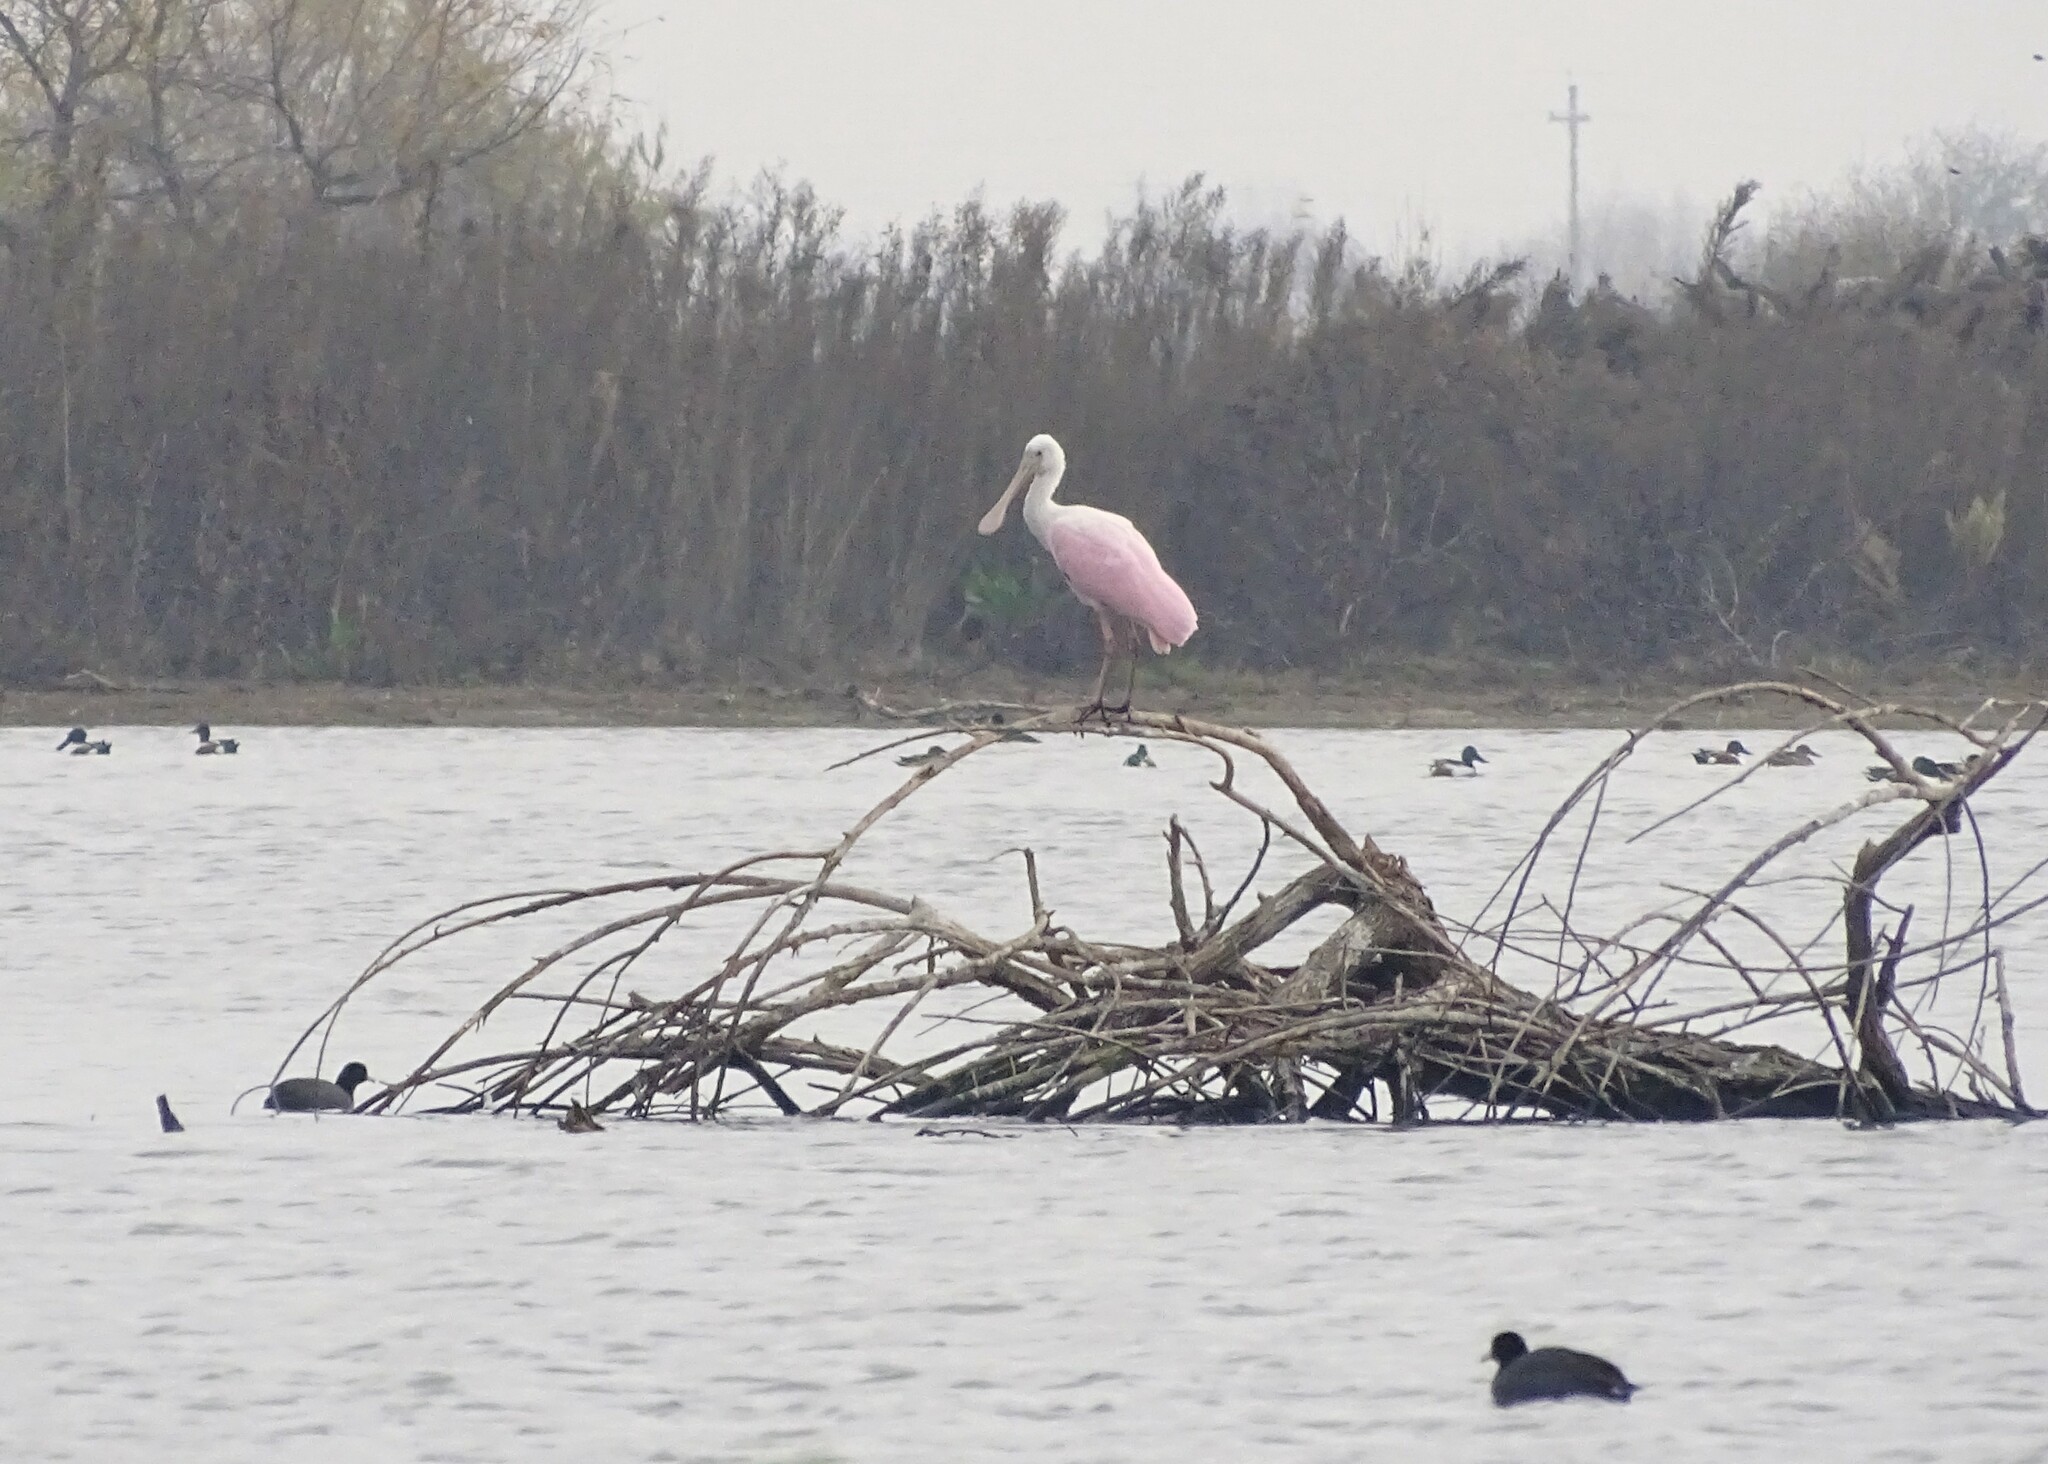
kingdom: Animalia
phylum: Chordata
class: Aves
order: Pelecaniformes
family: Threskiornithidae
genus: Platalea
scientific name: Platalea ajaja
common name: Roseate spoonbill
